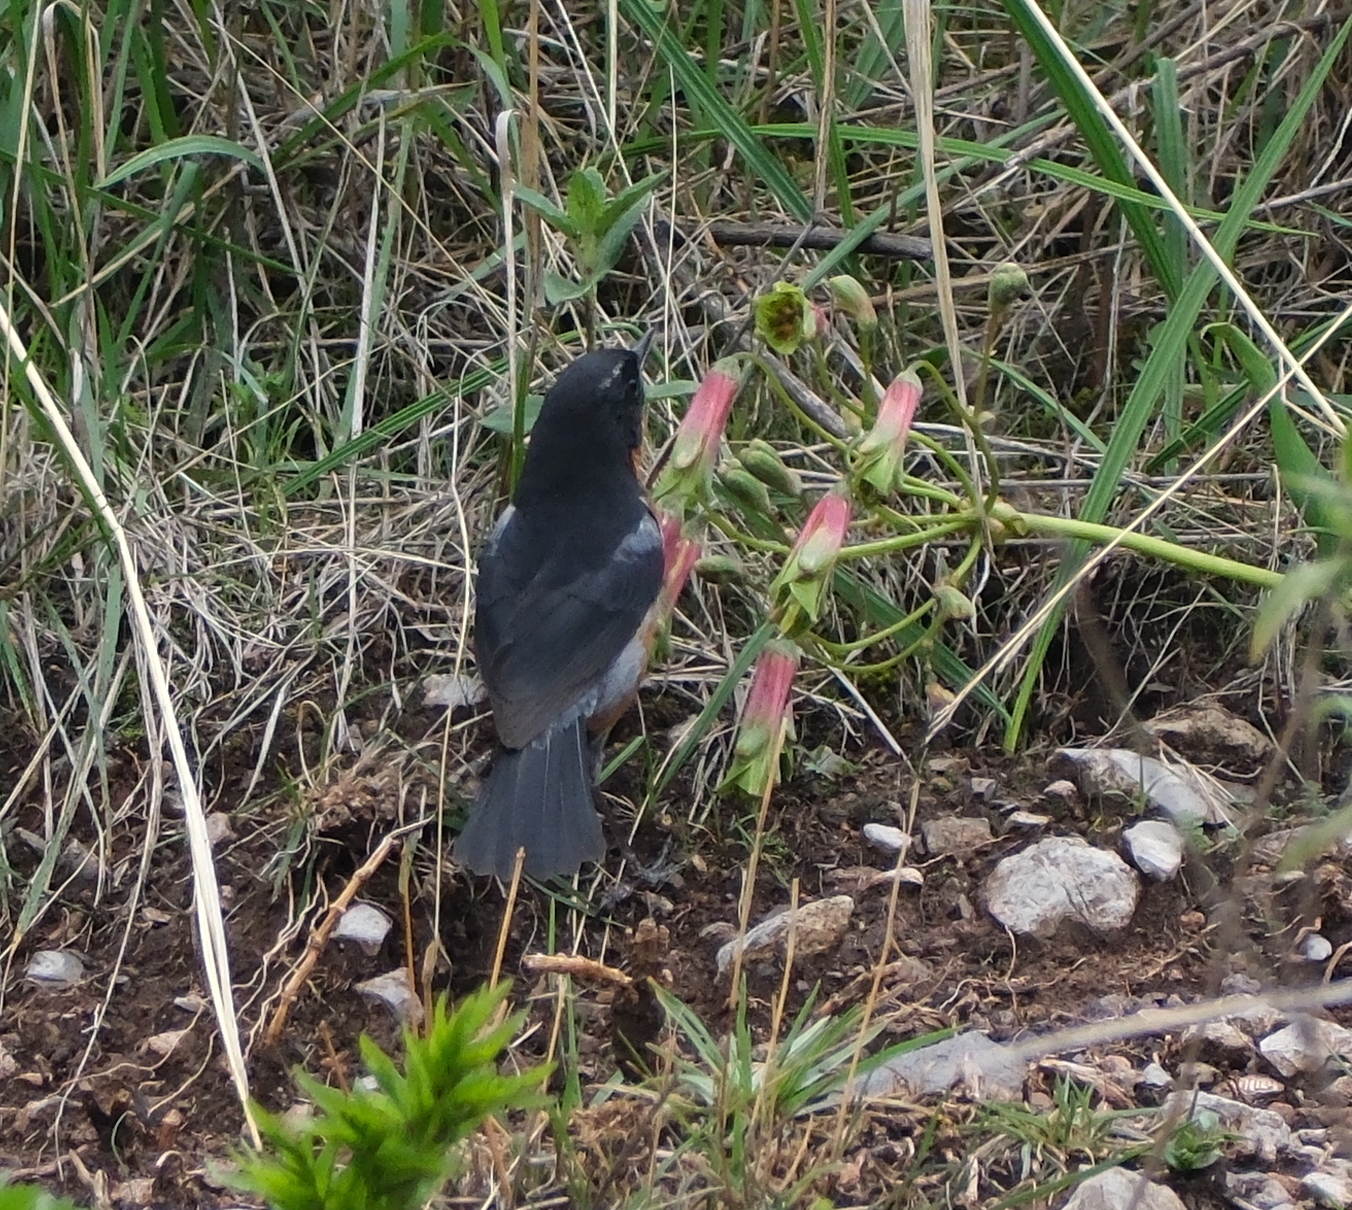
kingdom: Animalia
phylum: Chordata
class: Aves
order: Passeriformes
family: Thraupidae
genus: Diglossa
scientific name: Diglossa brunneiventris
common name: Black-throated flowerpiercer
